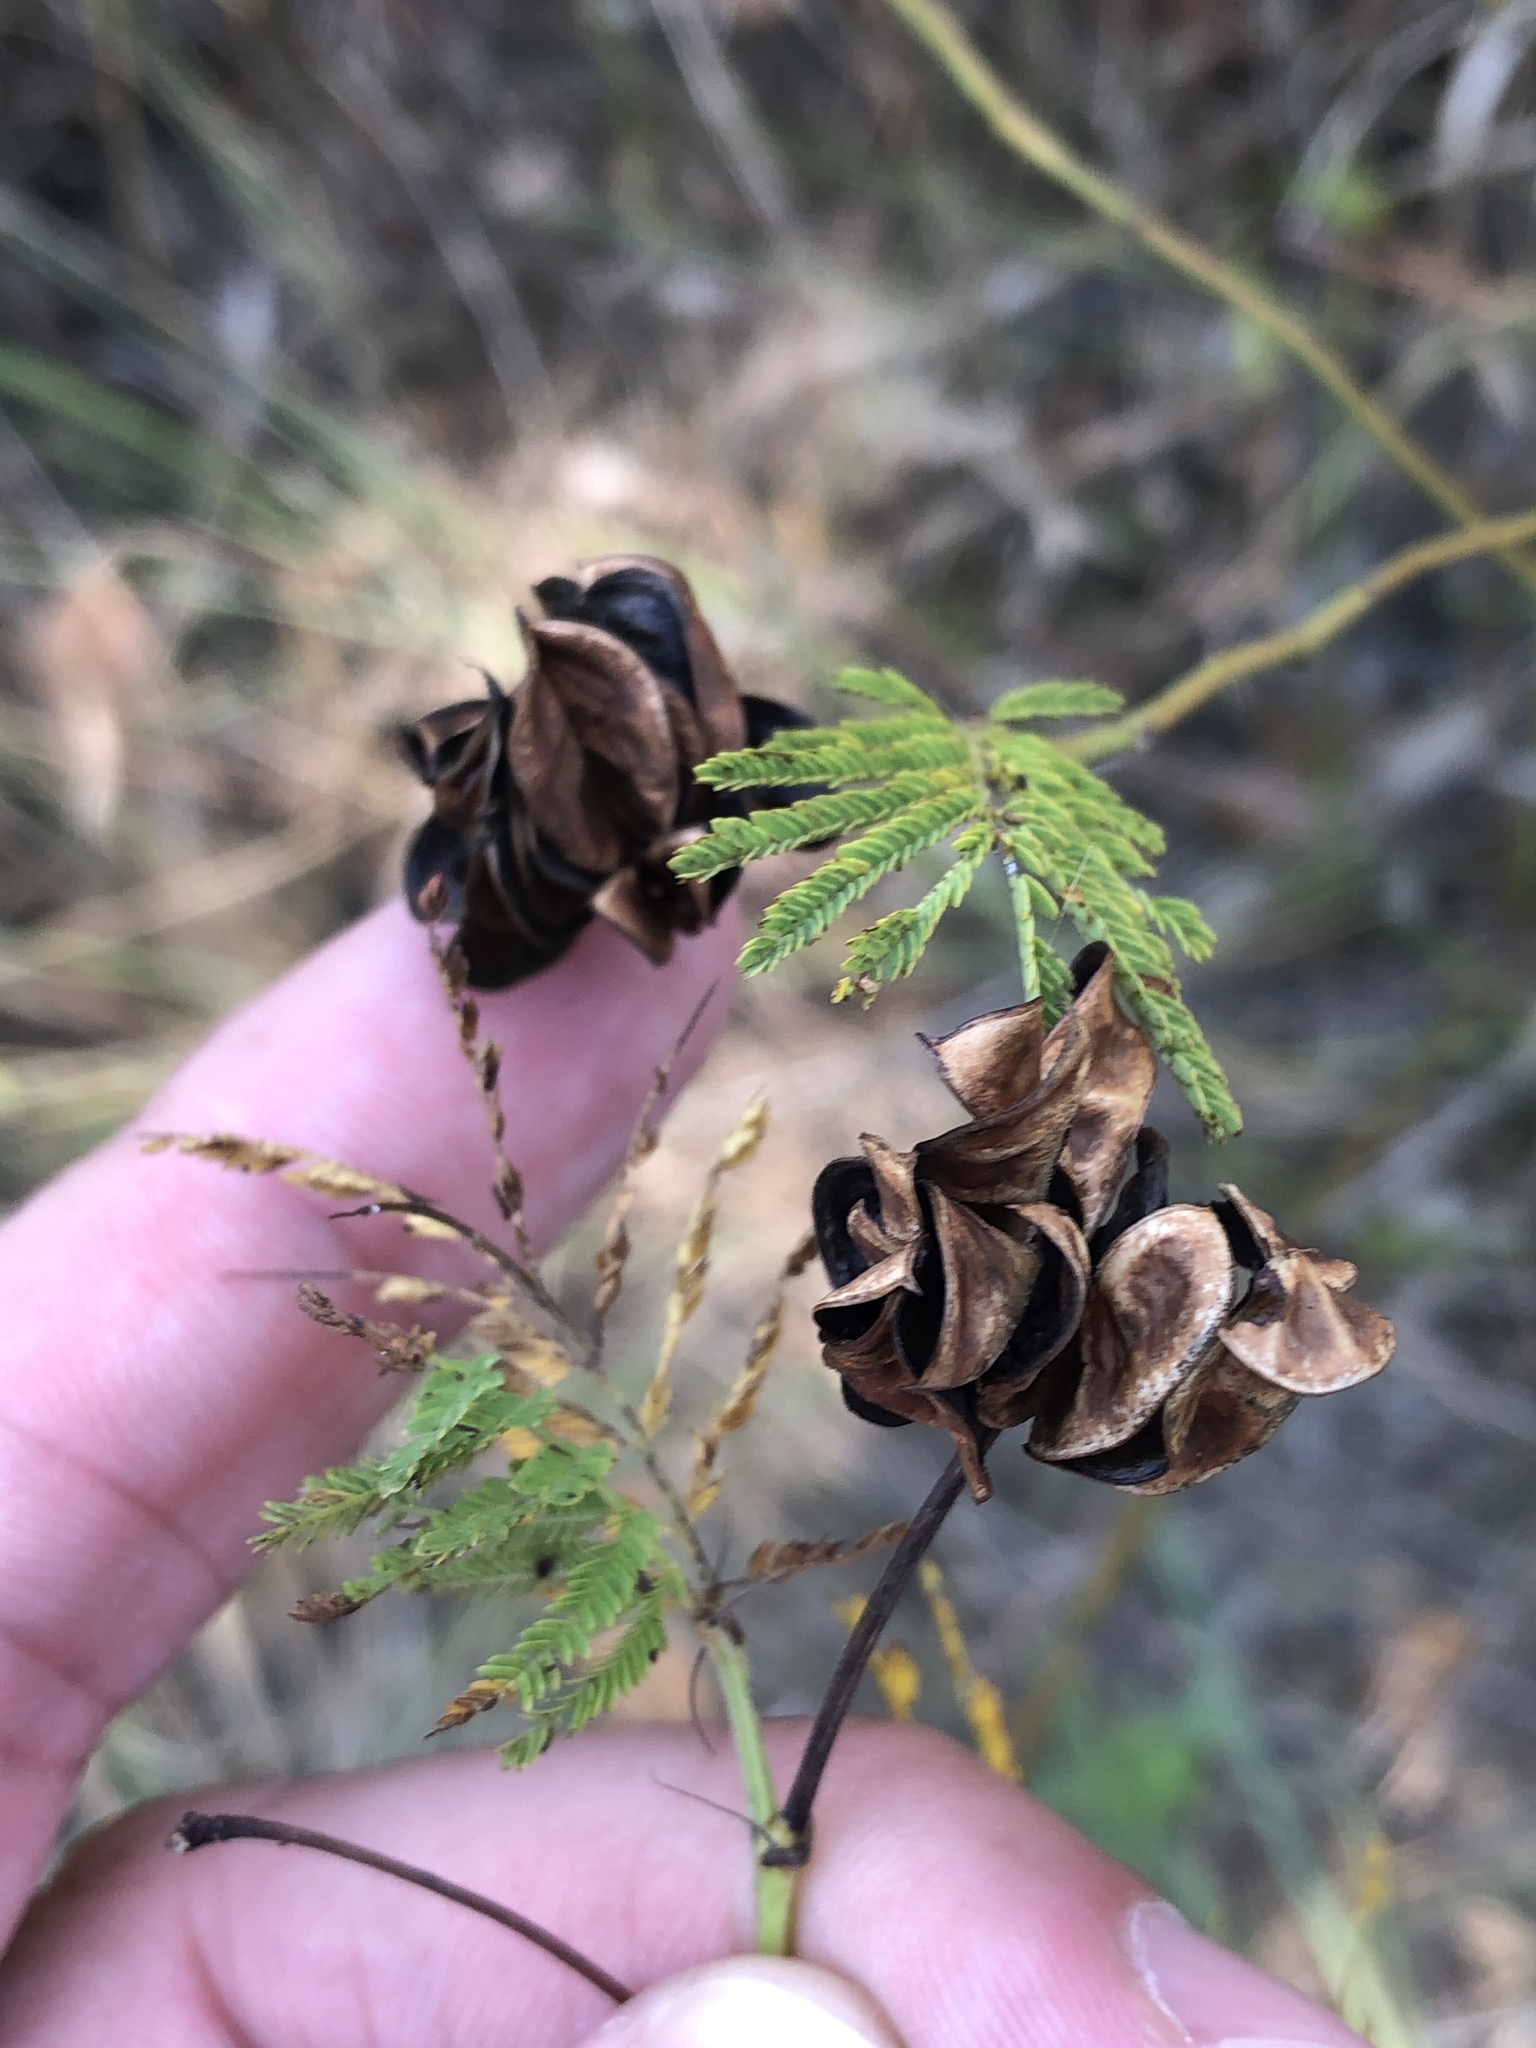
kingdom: Plantae
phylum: Tracheophyta
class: Magnoliopsida
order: Fabales
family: Fabaceae
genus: Desmanthus
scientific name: Desmanthus illinoensis
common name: Illinois bundle-flower
